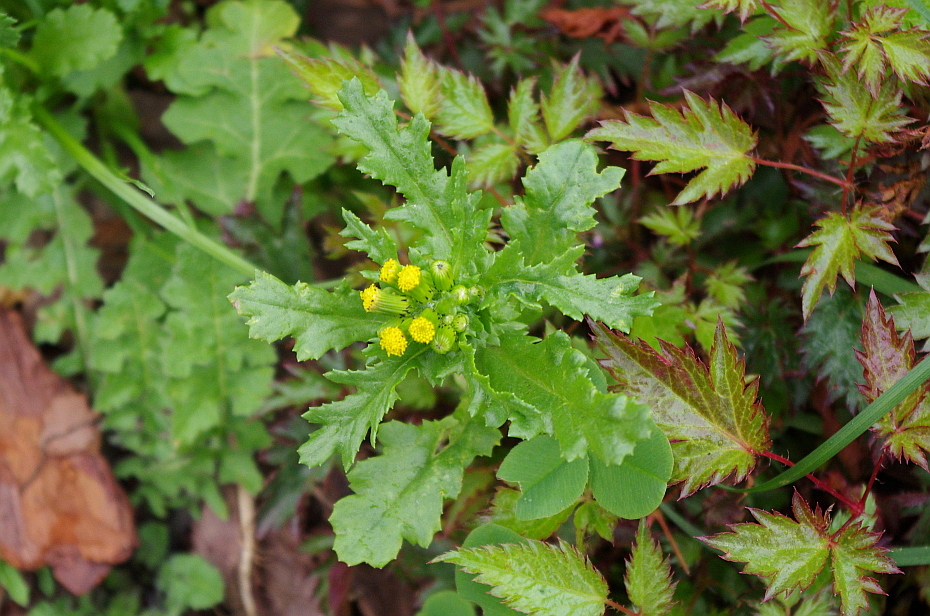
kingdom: Plantae
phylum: Tracheophyta
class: Magnoliopsida
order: Asterales
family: Asteraceae
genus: Senecio
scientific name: Senecio vulgaris
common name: Old-man-in-the-spring
